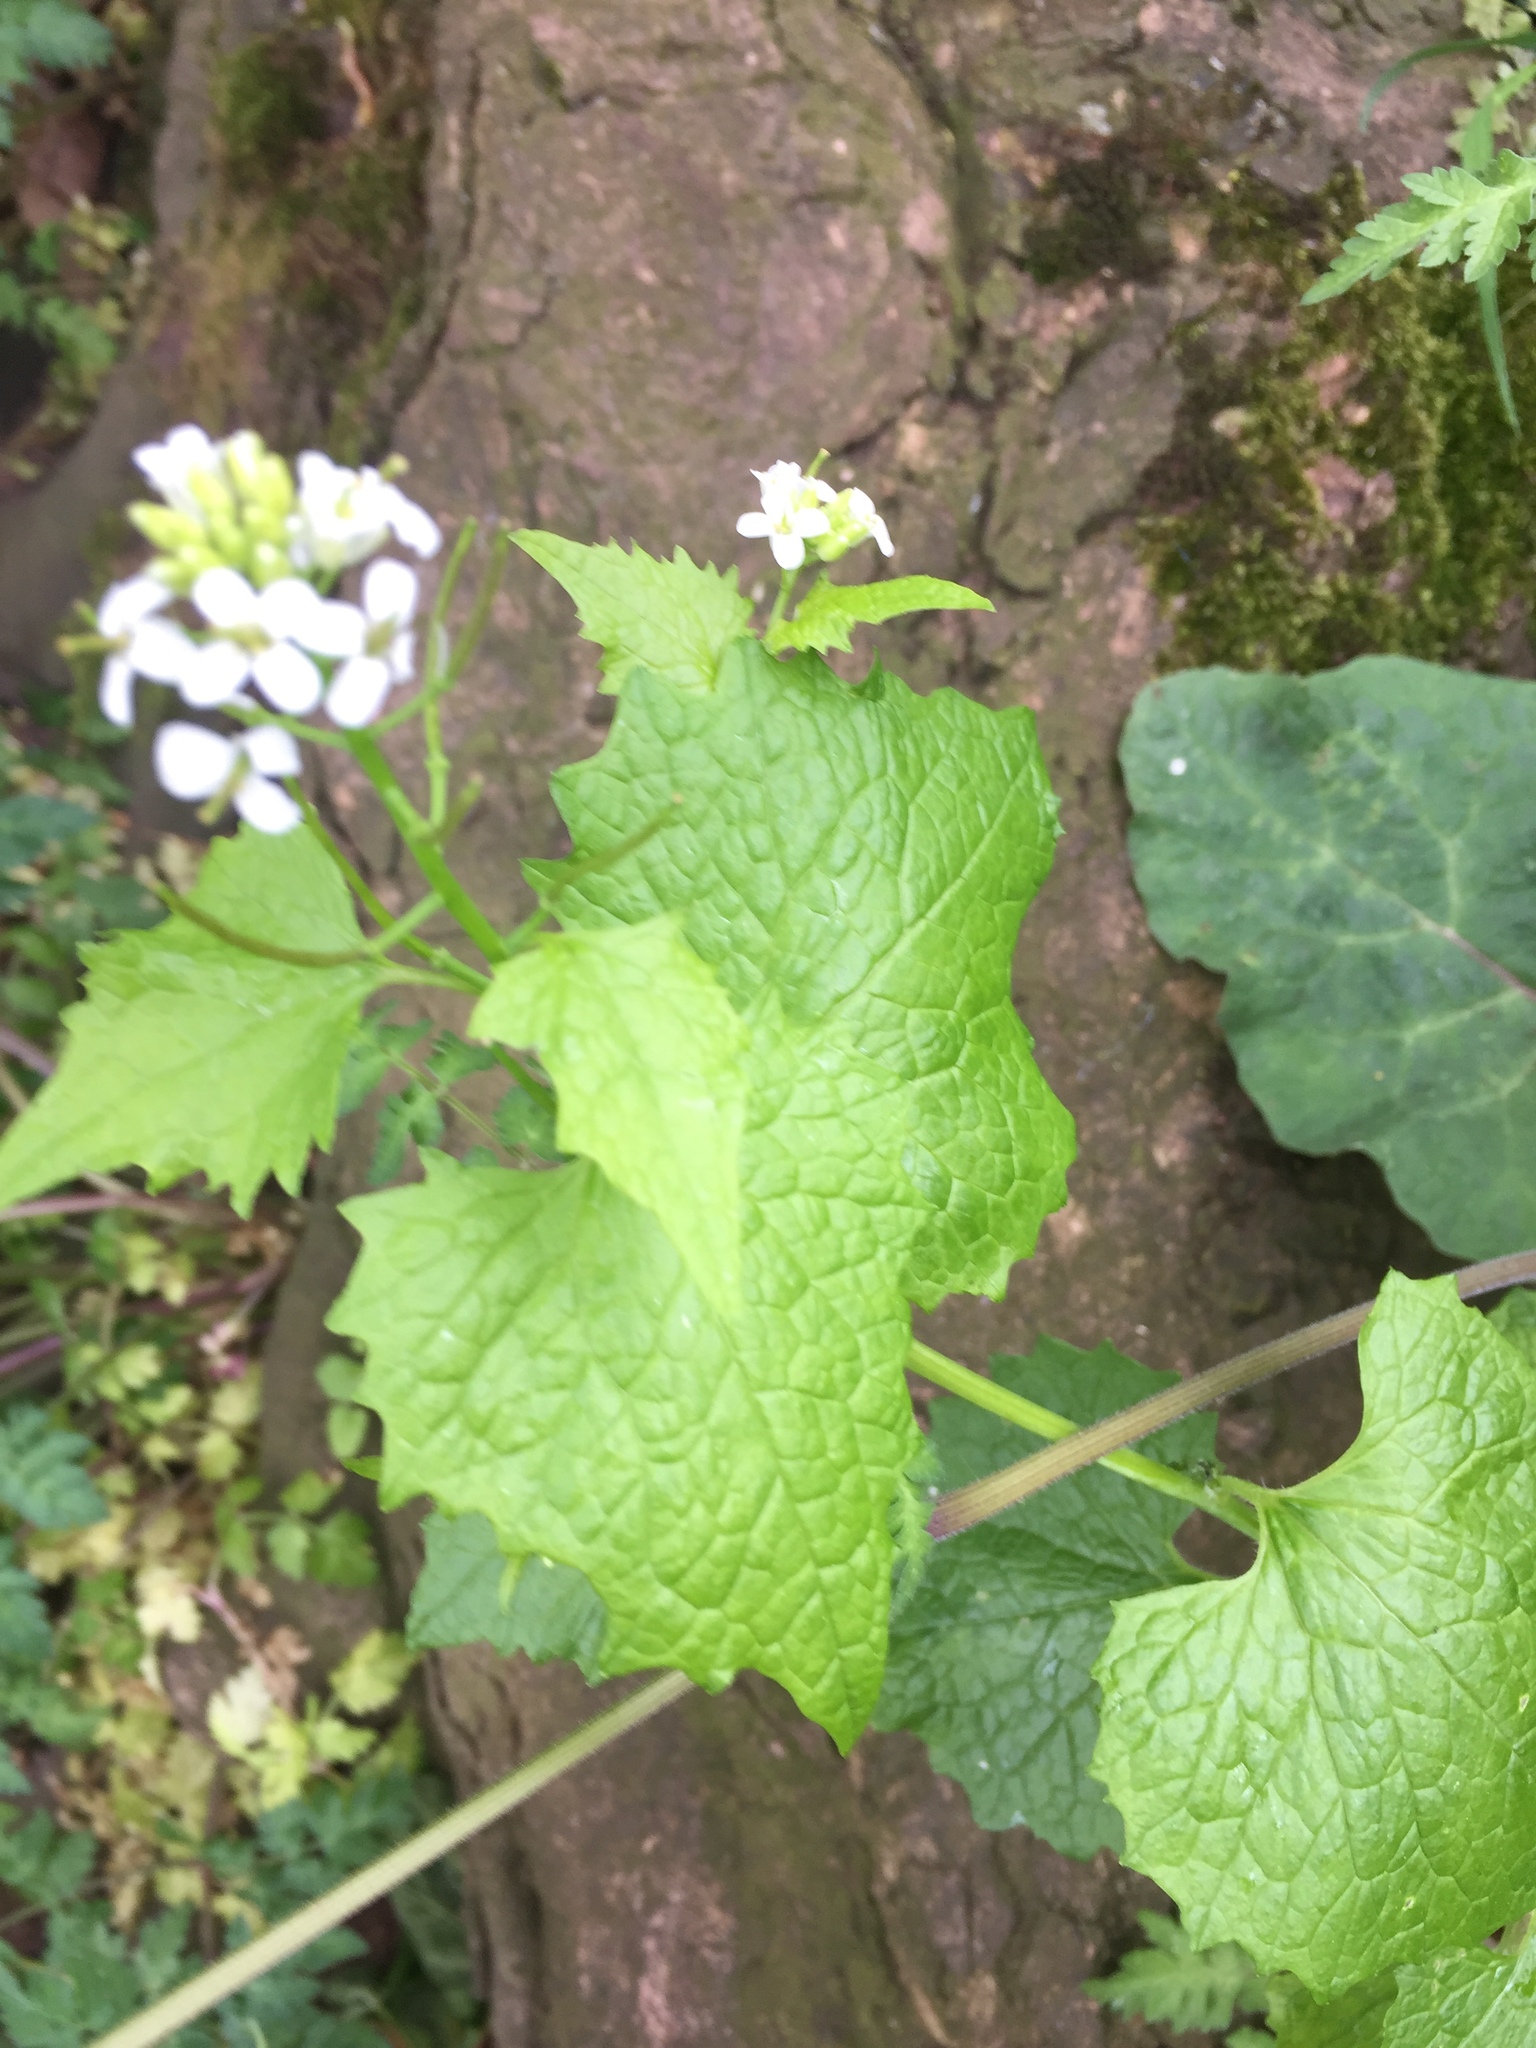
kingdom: Plantae
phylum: Tracheophyta
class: Magnoliopsida
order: Brassicales
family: Brassicaceae
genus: Alliaria
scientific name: Alliaria petiolata
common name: Garlic mustard
